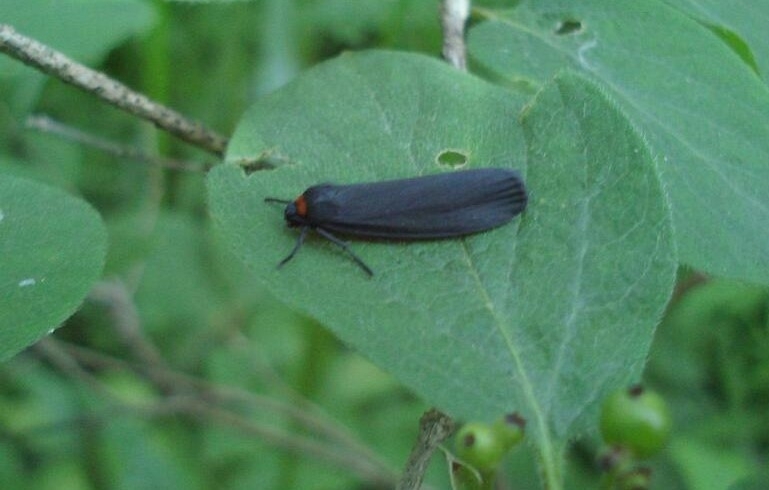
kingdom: Animalia
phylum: Arthropoda
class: Insecta
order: Lepidoptera
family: Erebidae
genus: Atolmis
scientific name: Atolmis rubricollis
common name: Red-necked footman
